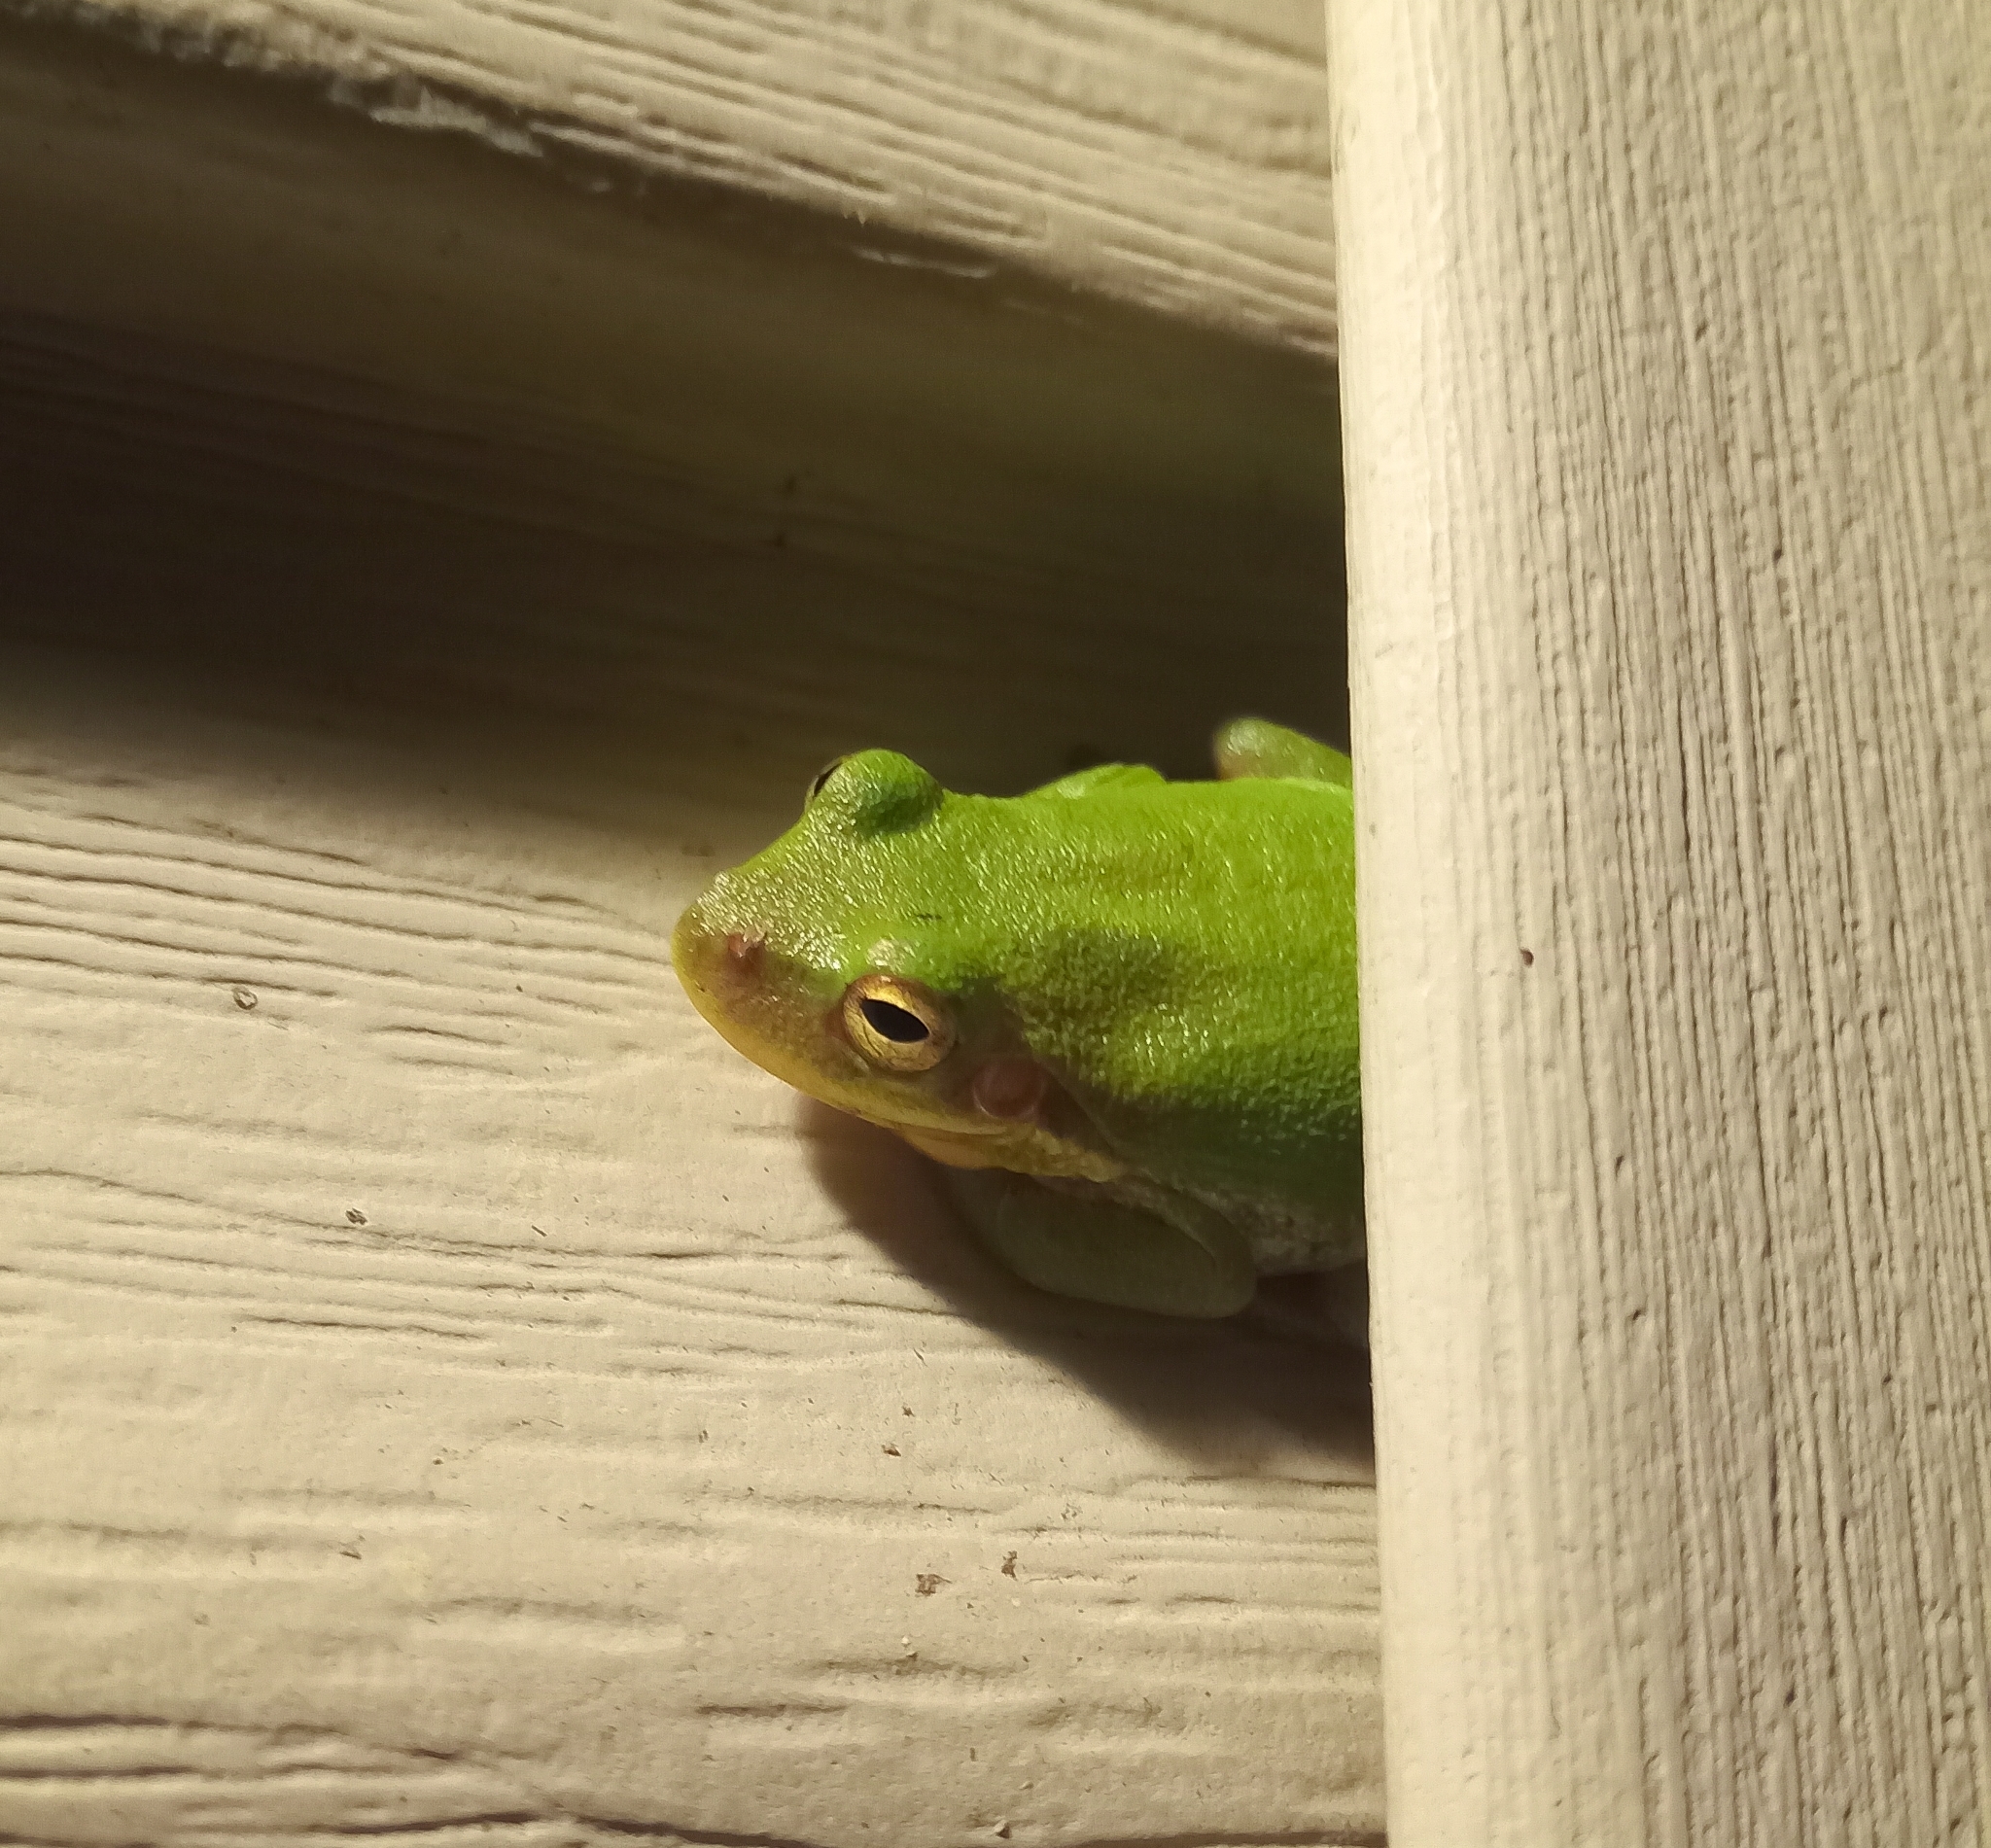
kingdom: Animalia
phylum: Chordata
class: Amphibia
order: Anura
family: Hylidae
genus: Dryophytes
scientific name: Dryophytes squirellus
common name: Squirrel treefrog
